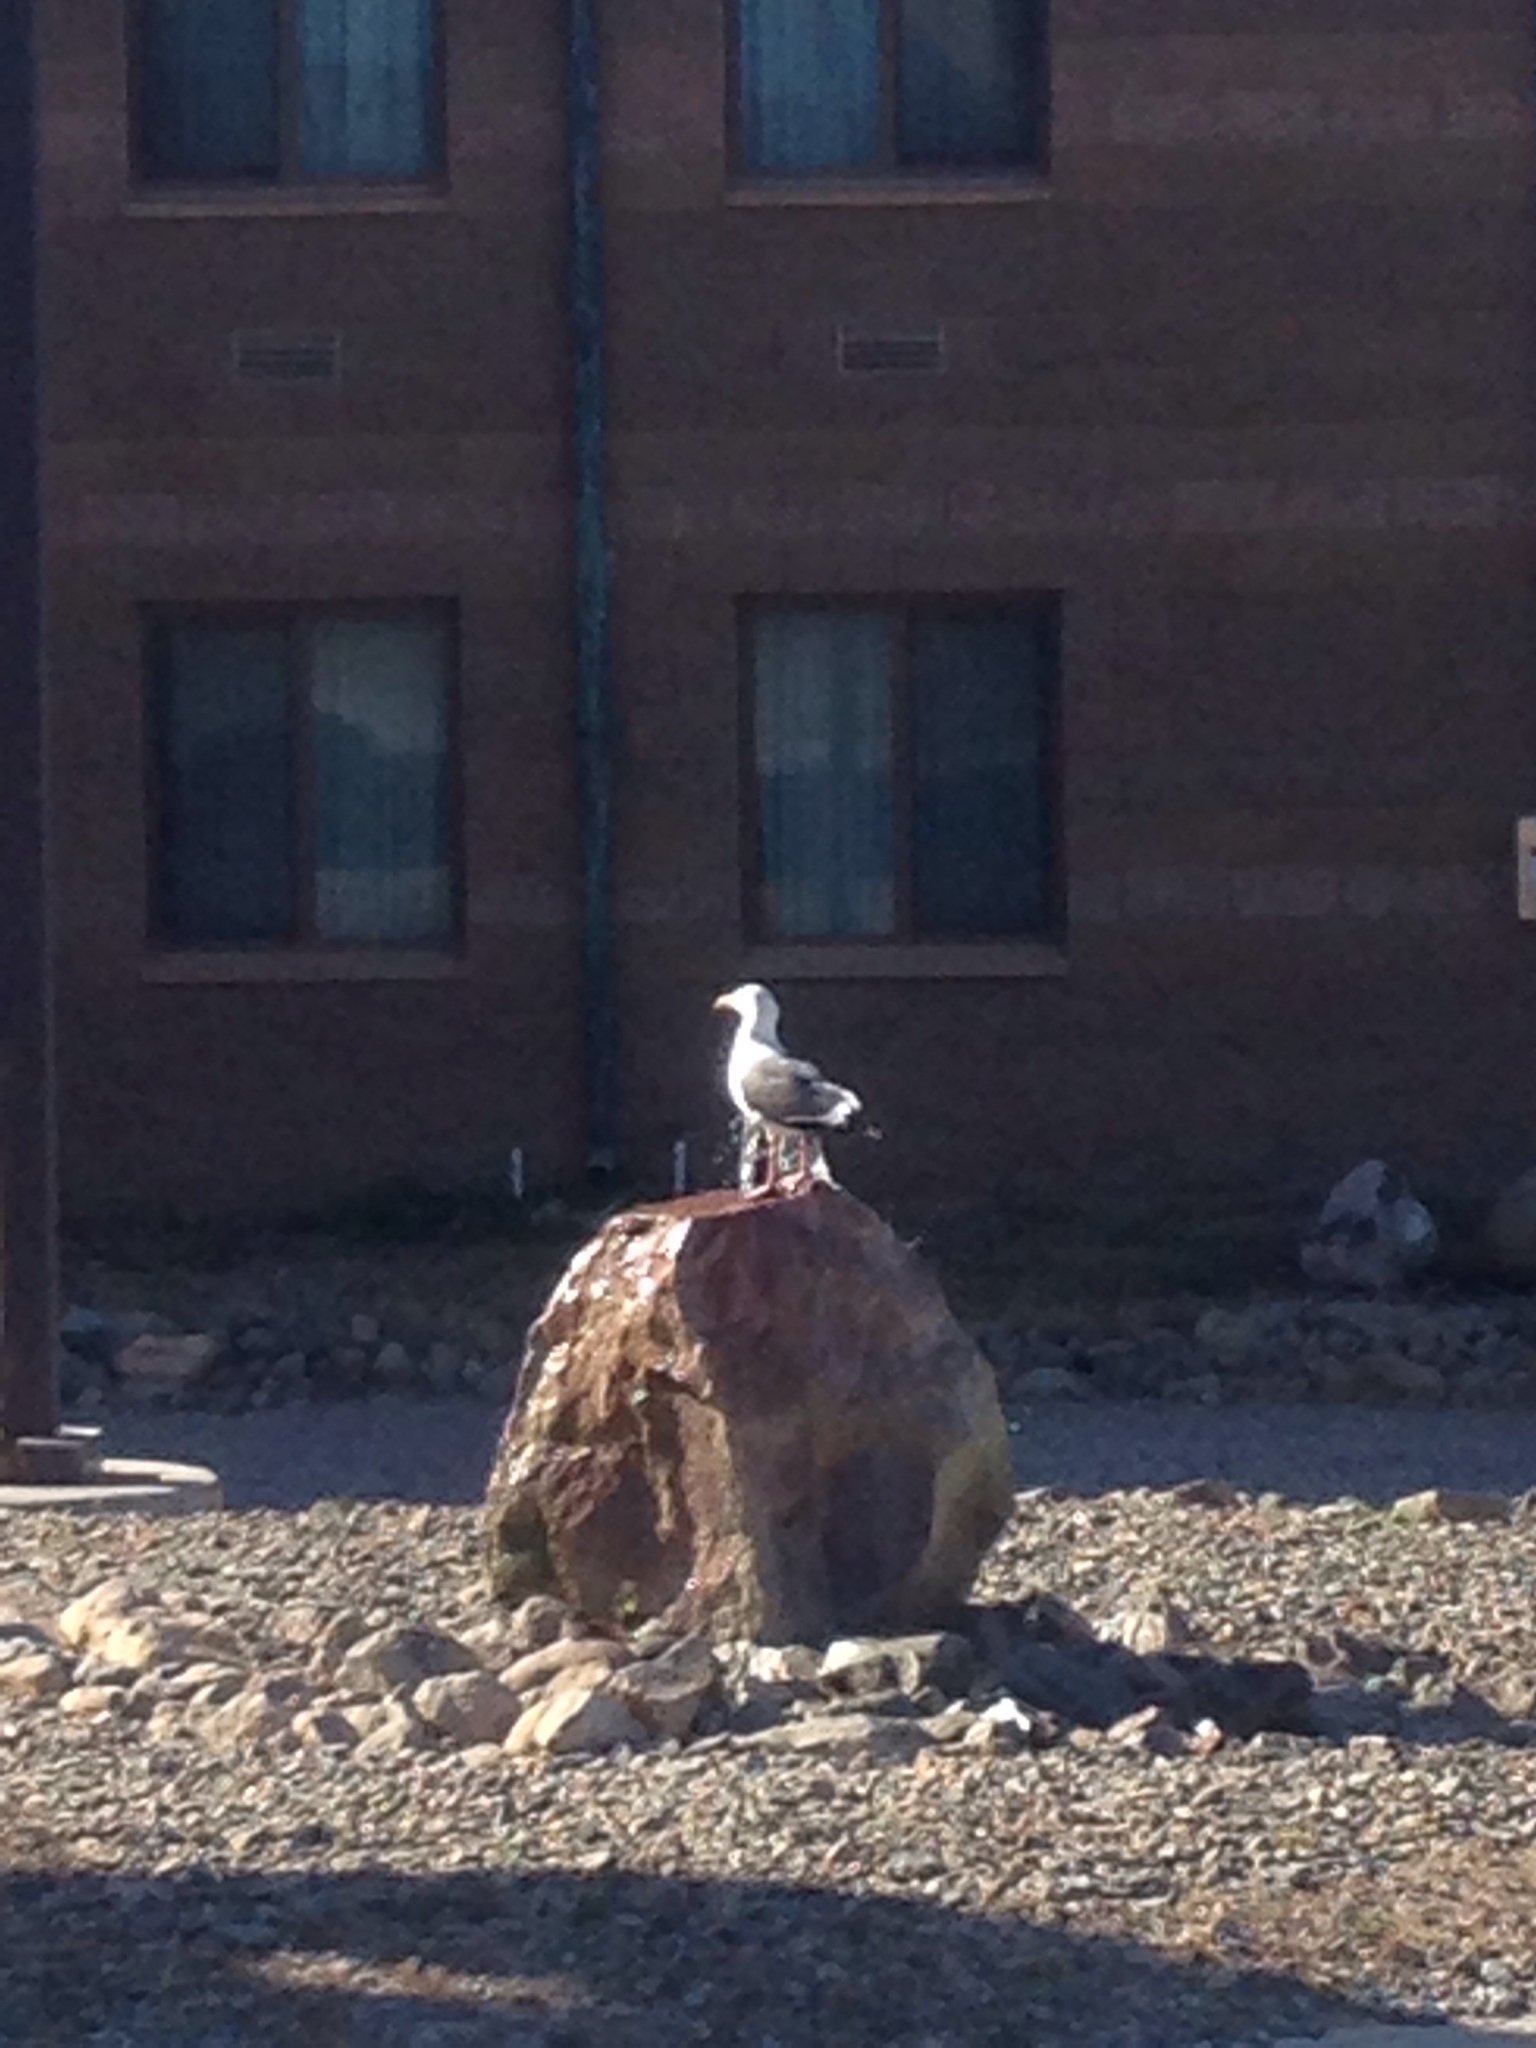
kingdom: Animalia
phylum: Chordata
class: Aves
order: Charadriiformes
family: Laridae
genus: Larus
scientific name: Larus occidentalis
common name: Western gull
